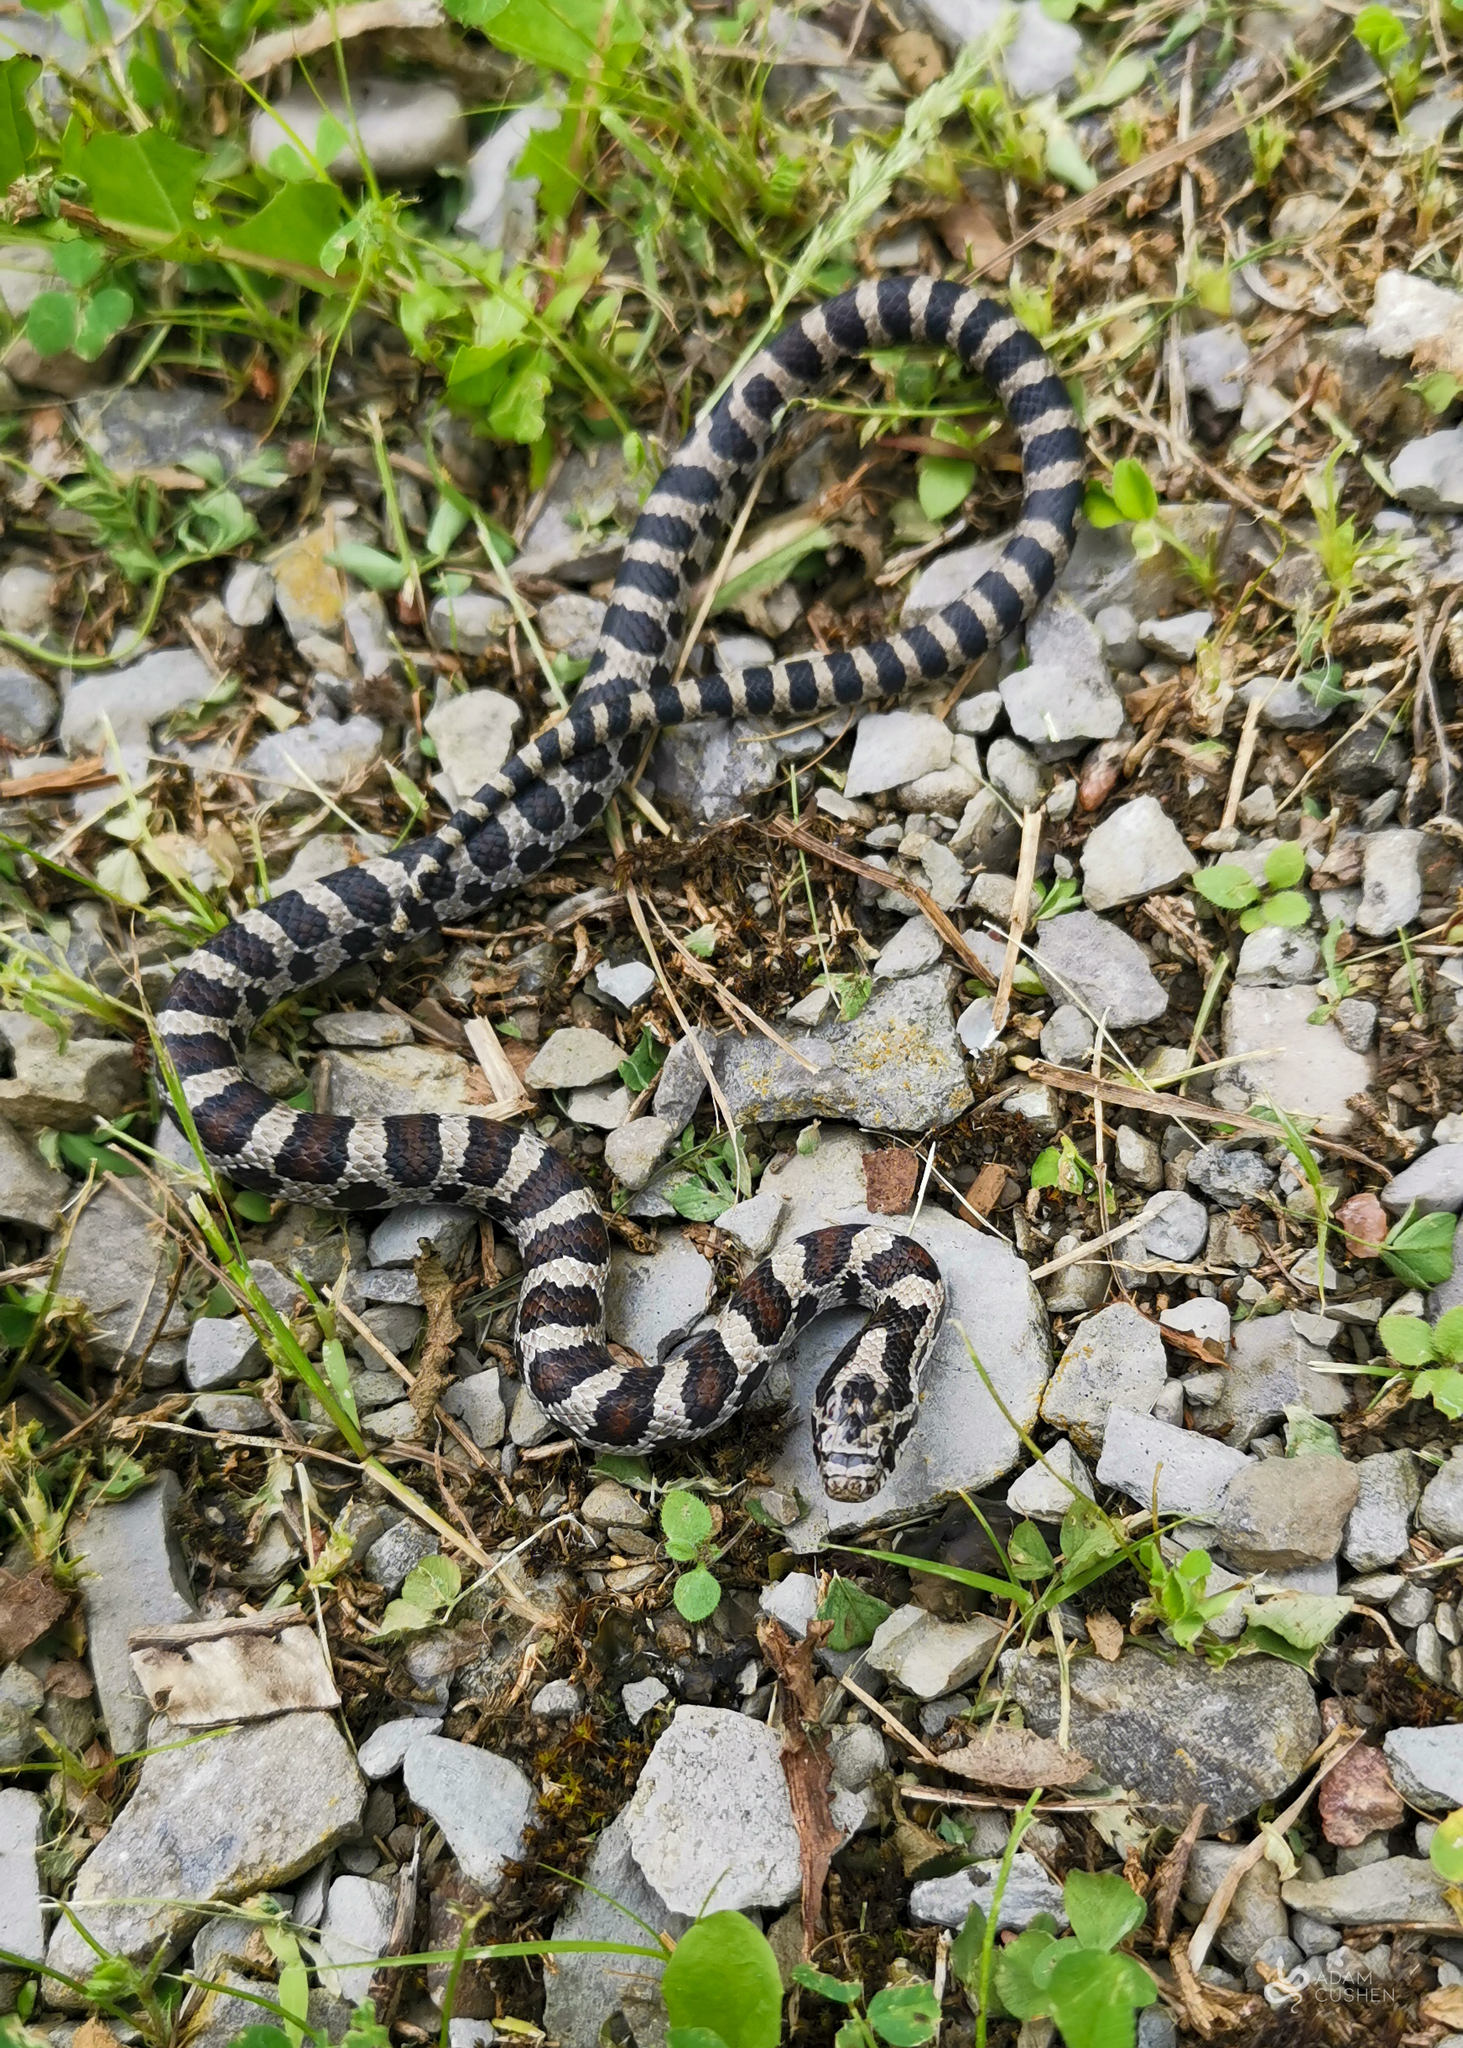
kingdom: Animalia
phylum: Chordata
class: Squamata
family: Colubridae
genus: Lampropeltis
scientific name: Lampropeltis triangulum
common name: Eastern milksnake
